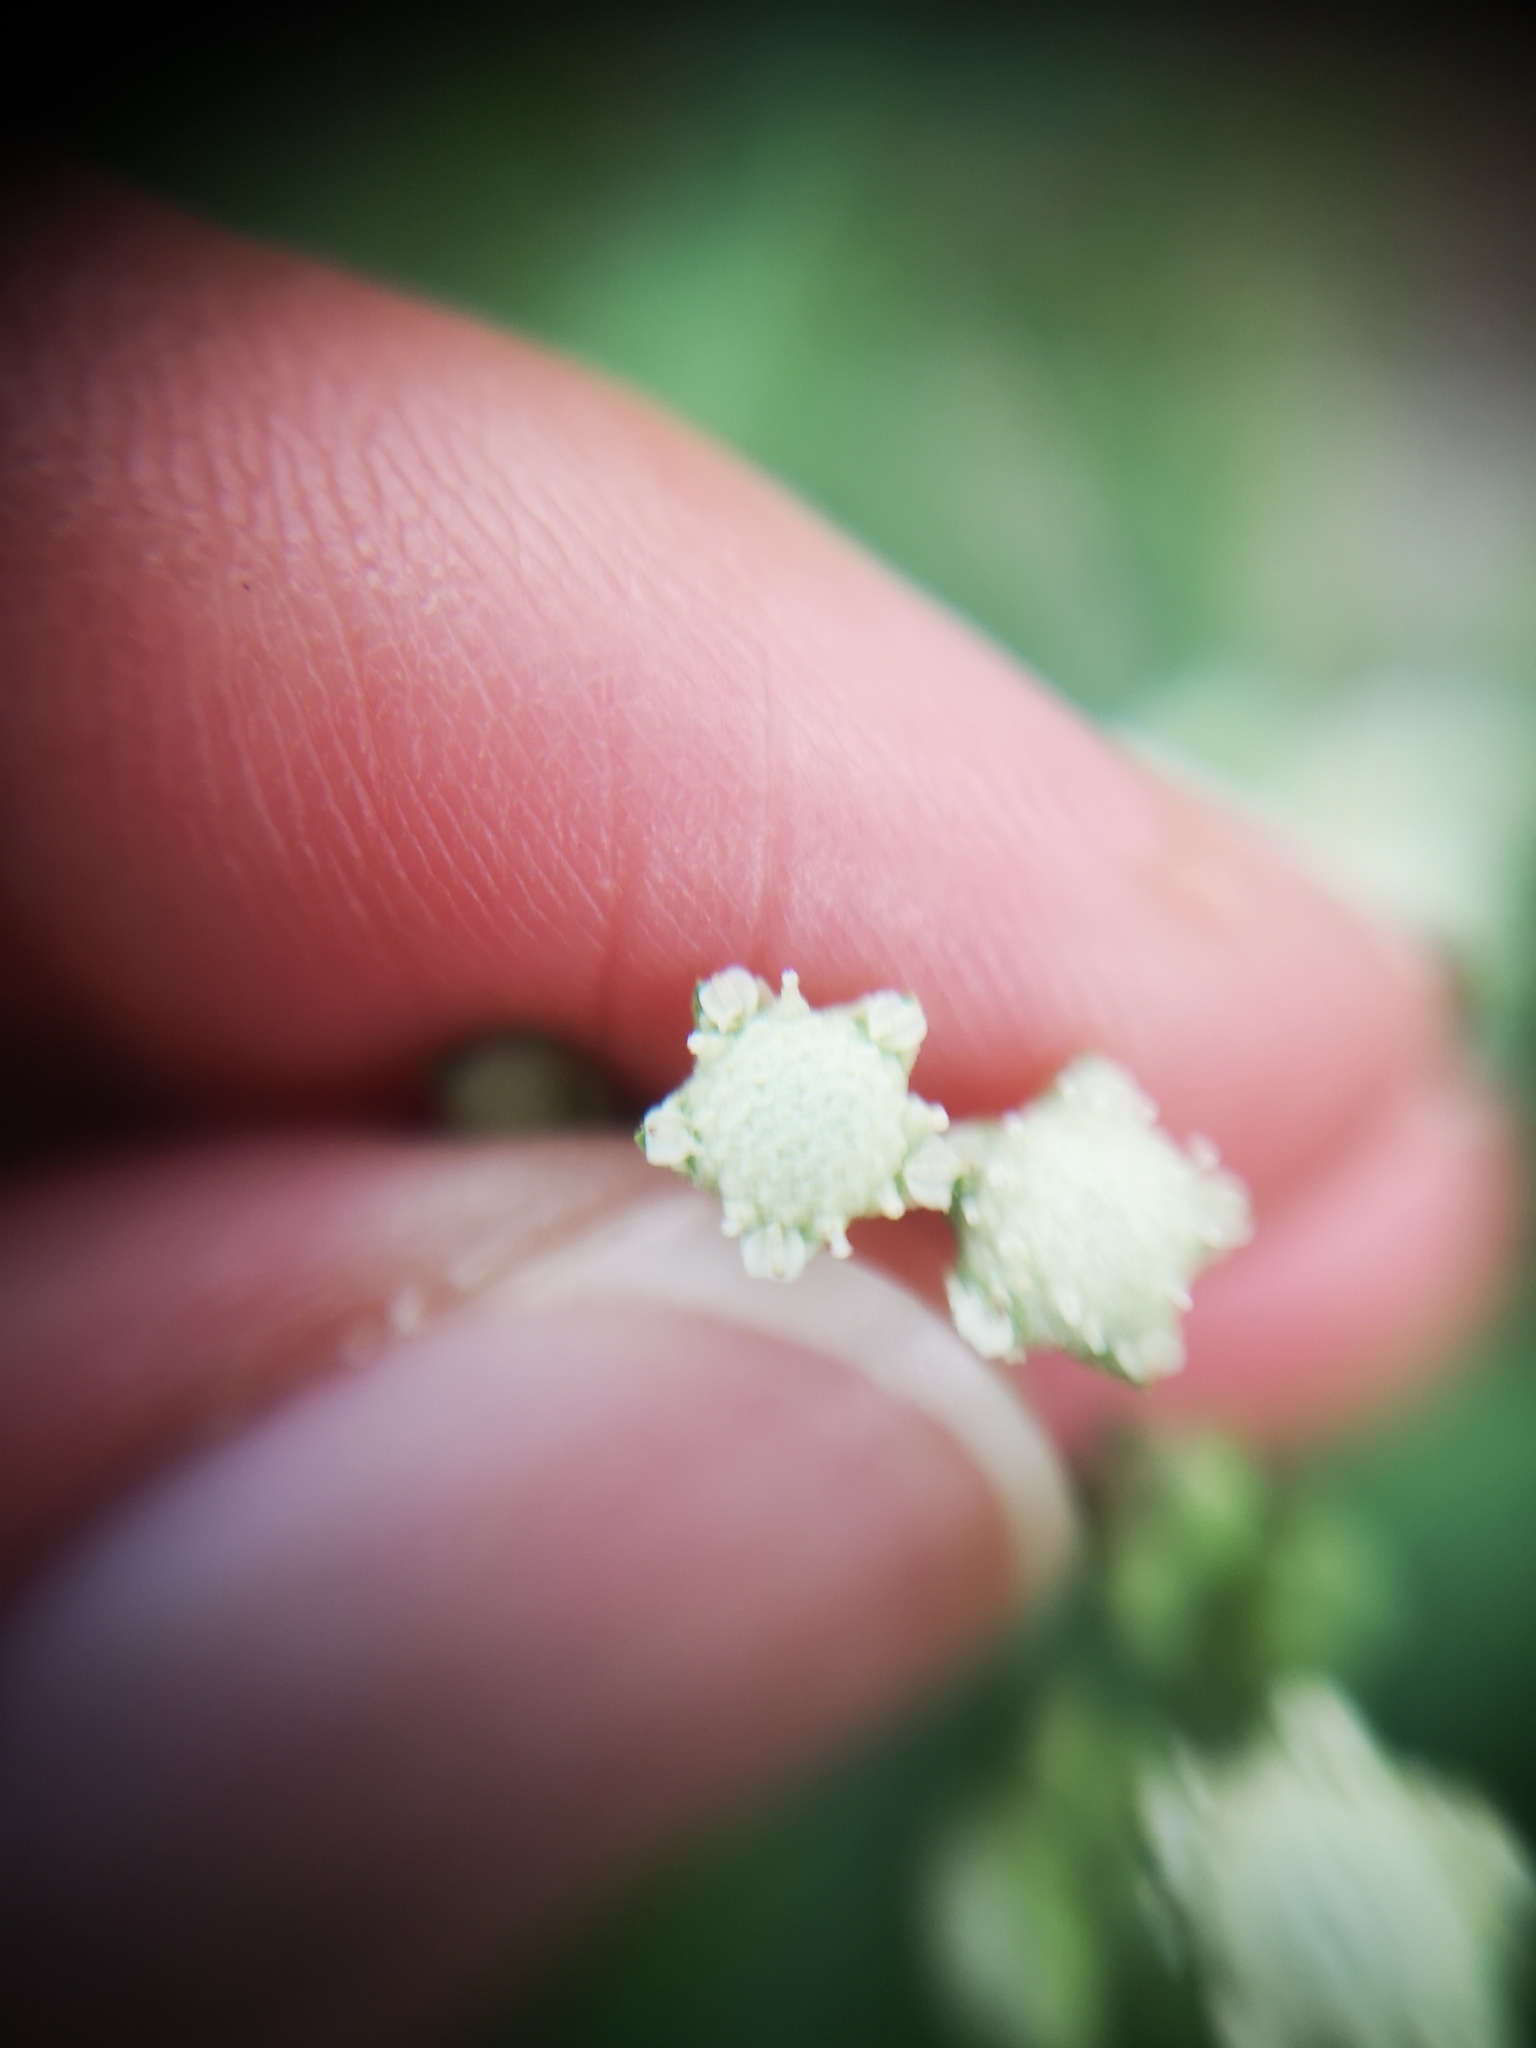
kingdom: Plantae
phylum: Tracheophyta
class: Magnoliopsida
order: Asterales
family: Asteraceae
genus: Parthenium
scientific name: Parthenium hysterophorus
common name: Santa maria feverfew
